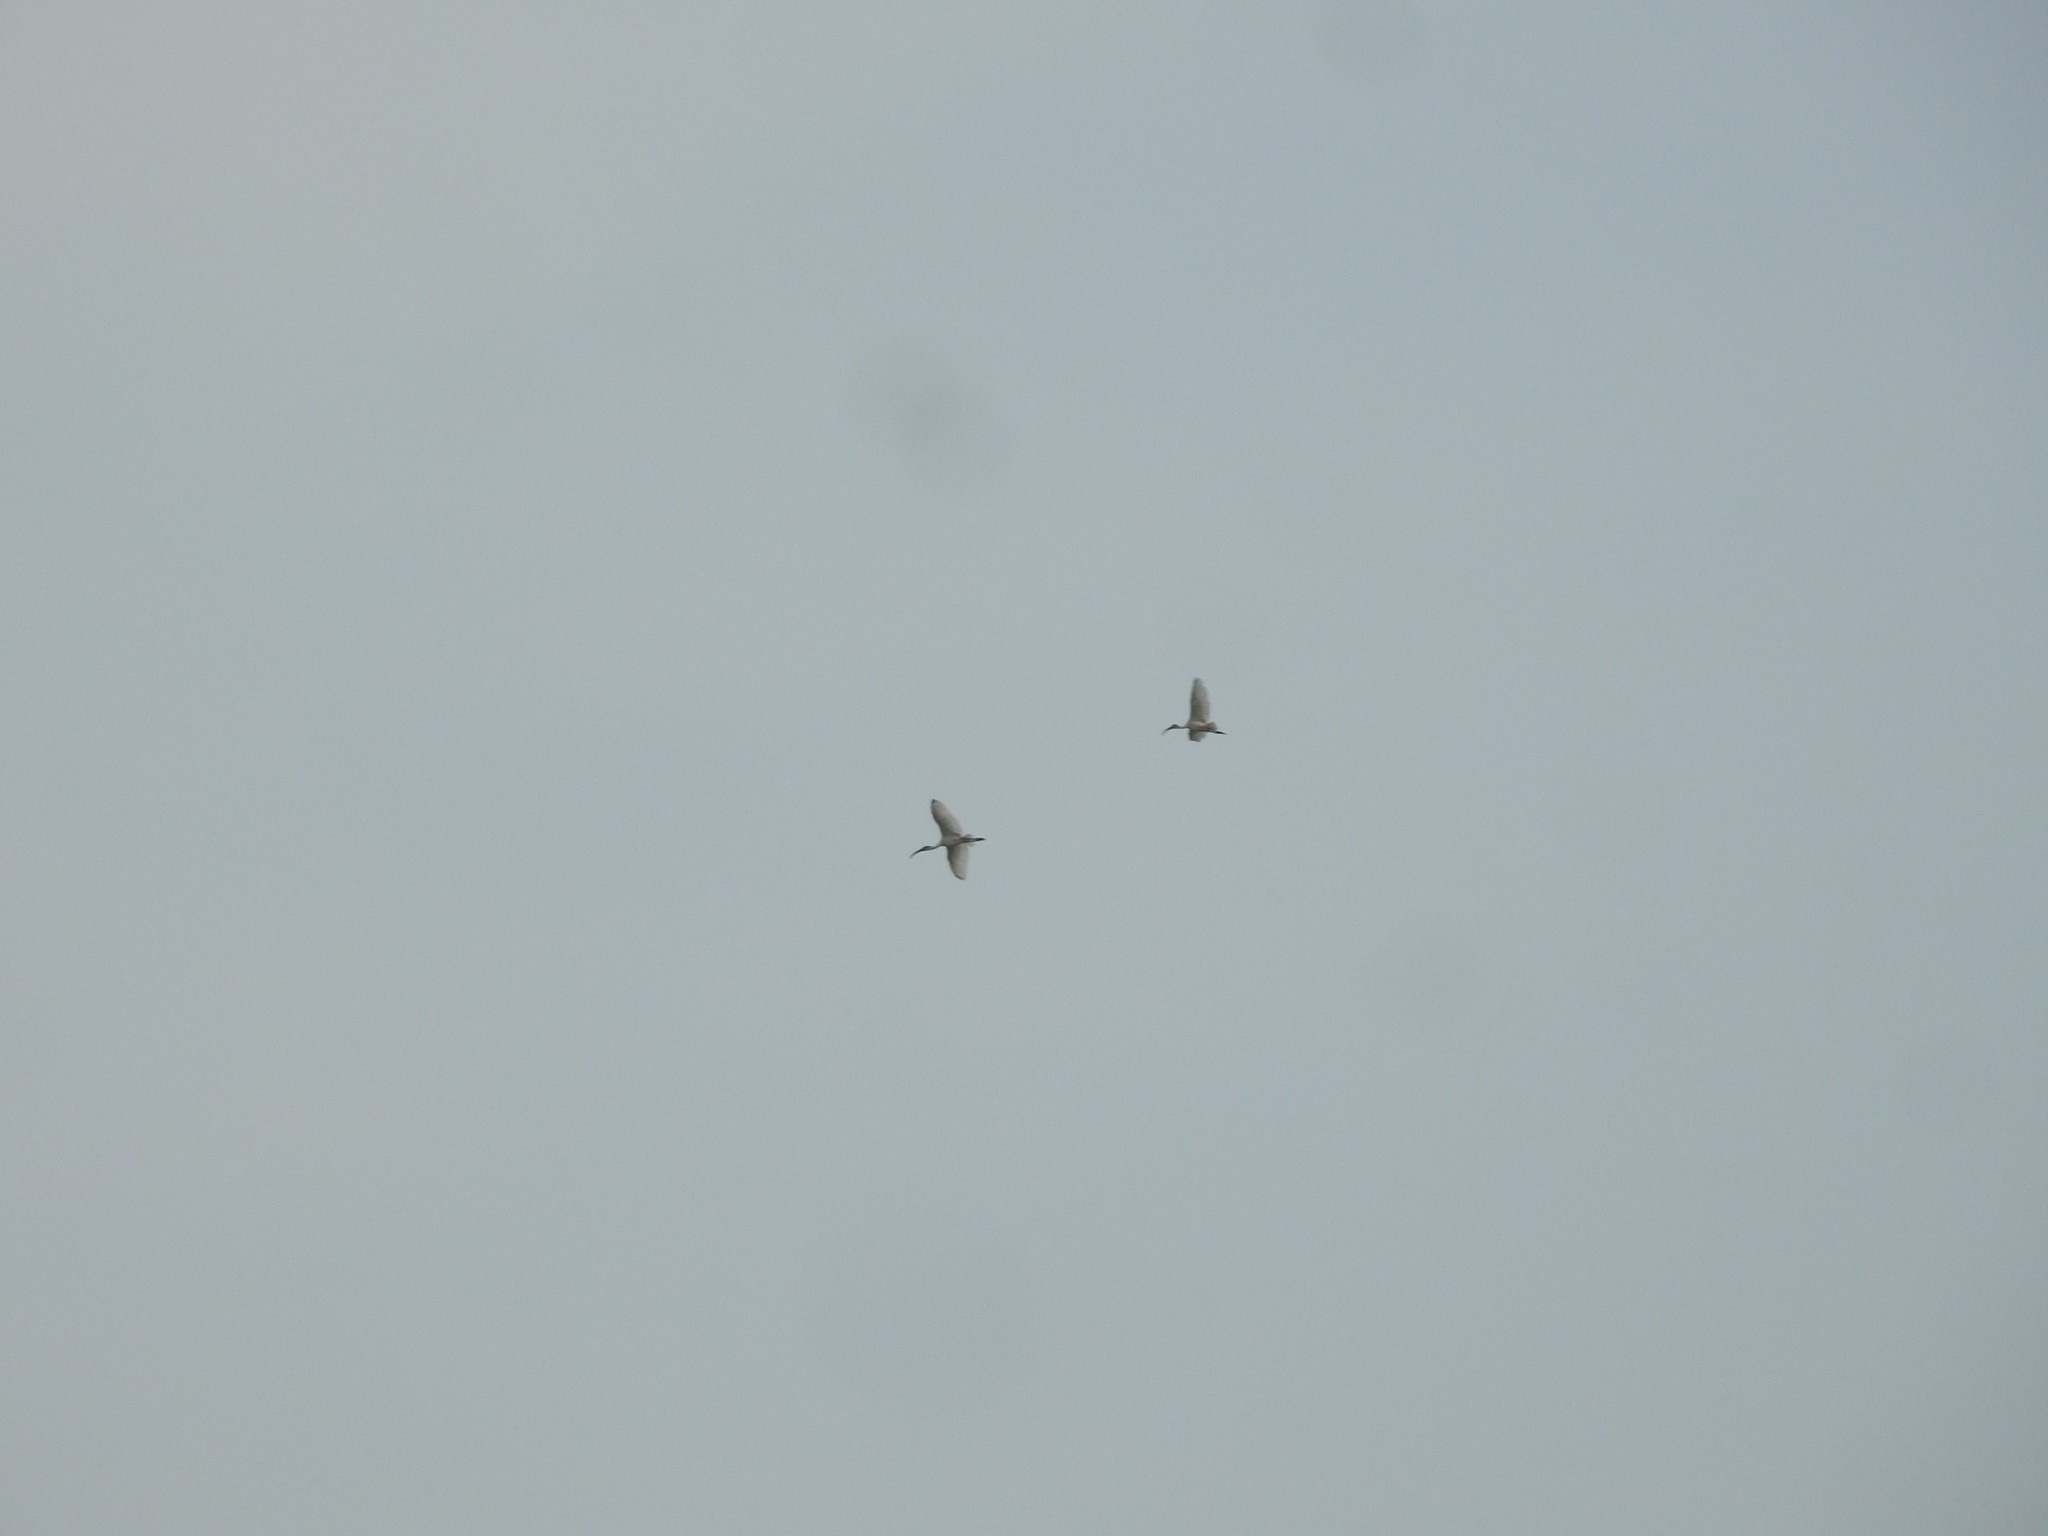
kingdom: Animalia
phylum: Chordata
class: Aves
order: Pelecaniformes
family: Threskiornithidae
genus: Threskiornis
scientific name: Threskiornis melanocephalus
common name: Black-headed ibis
